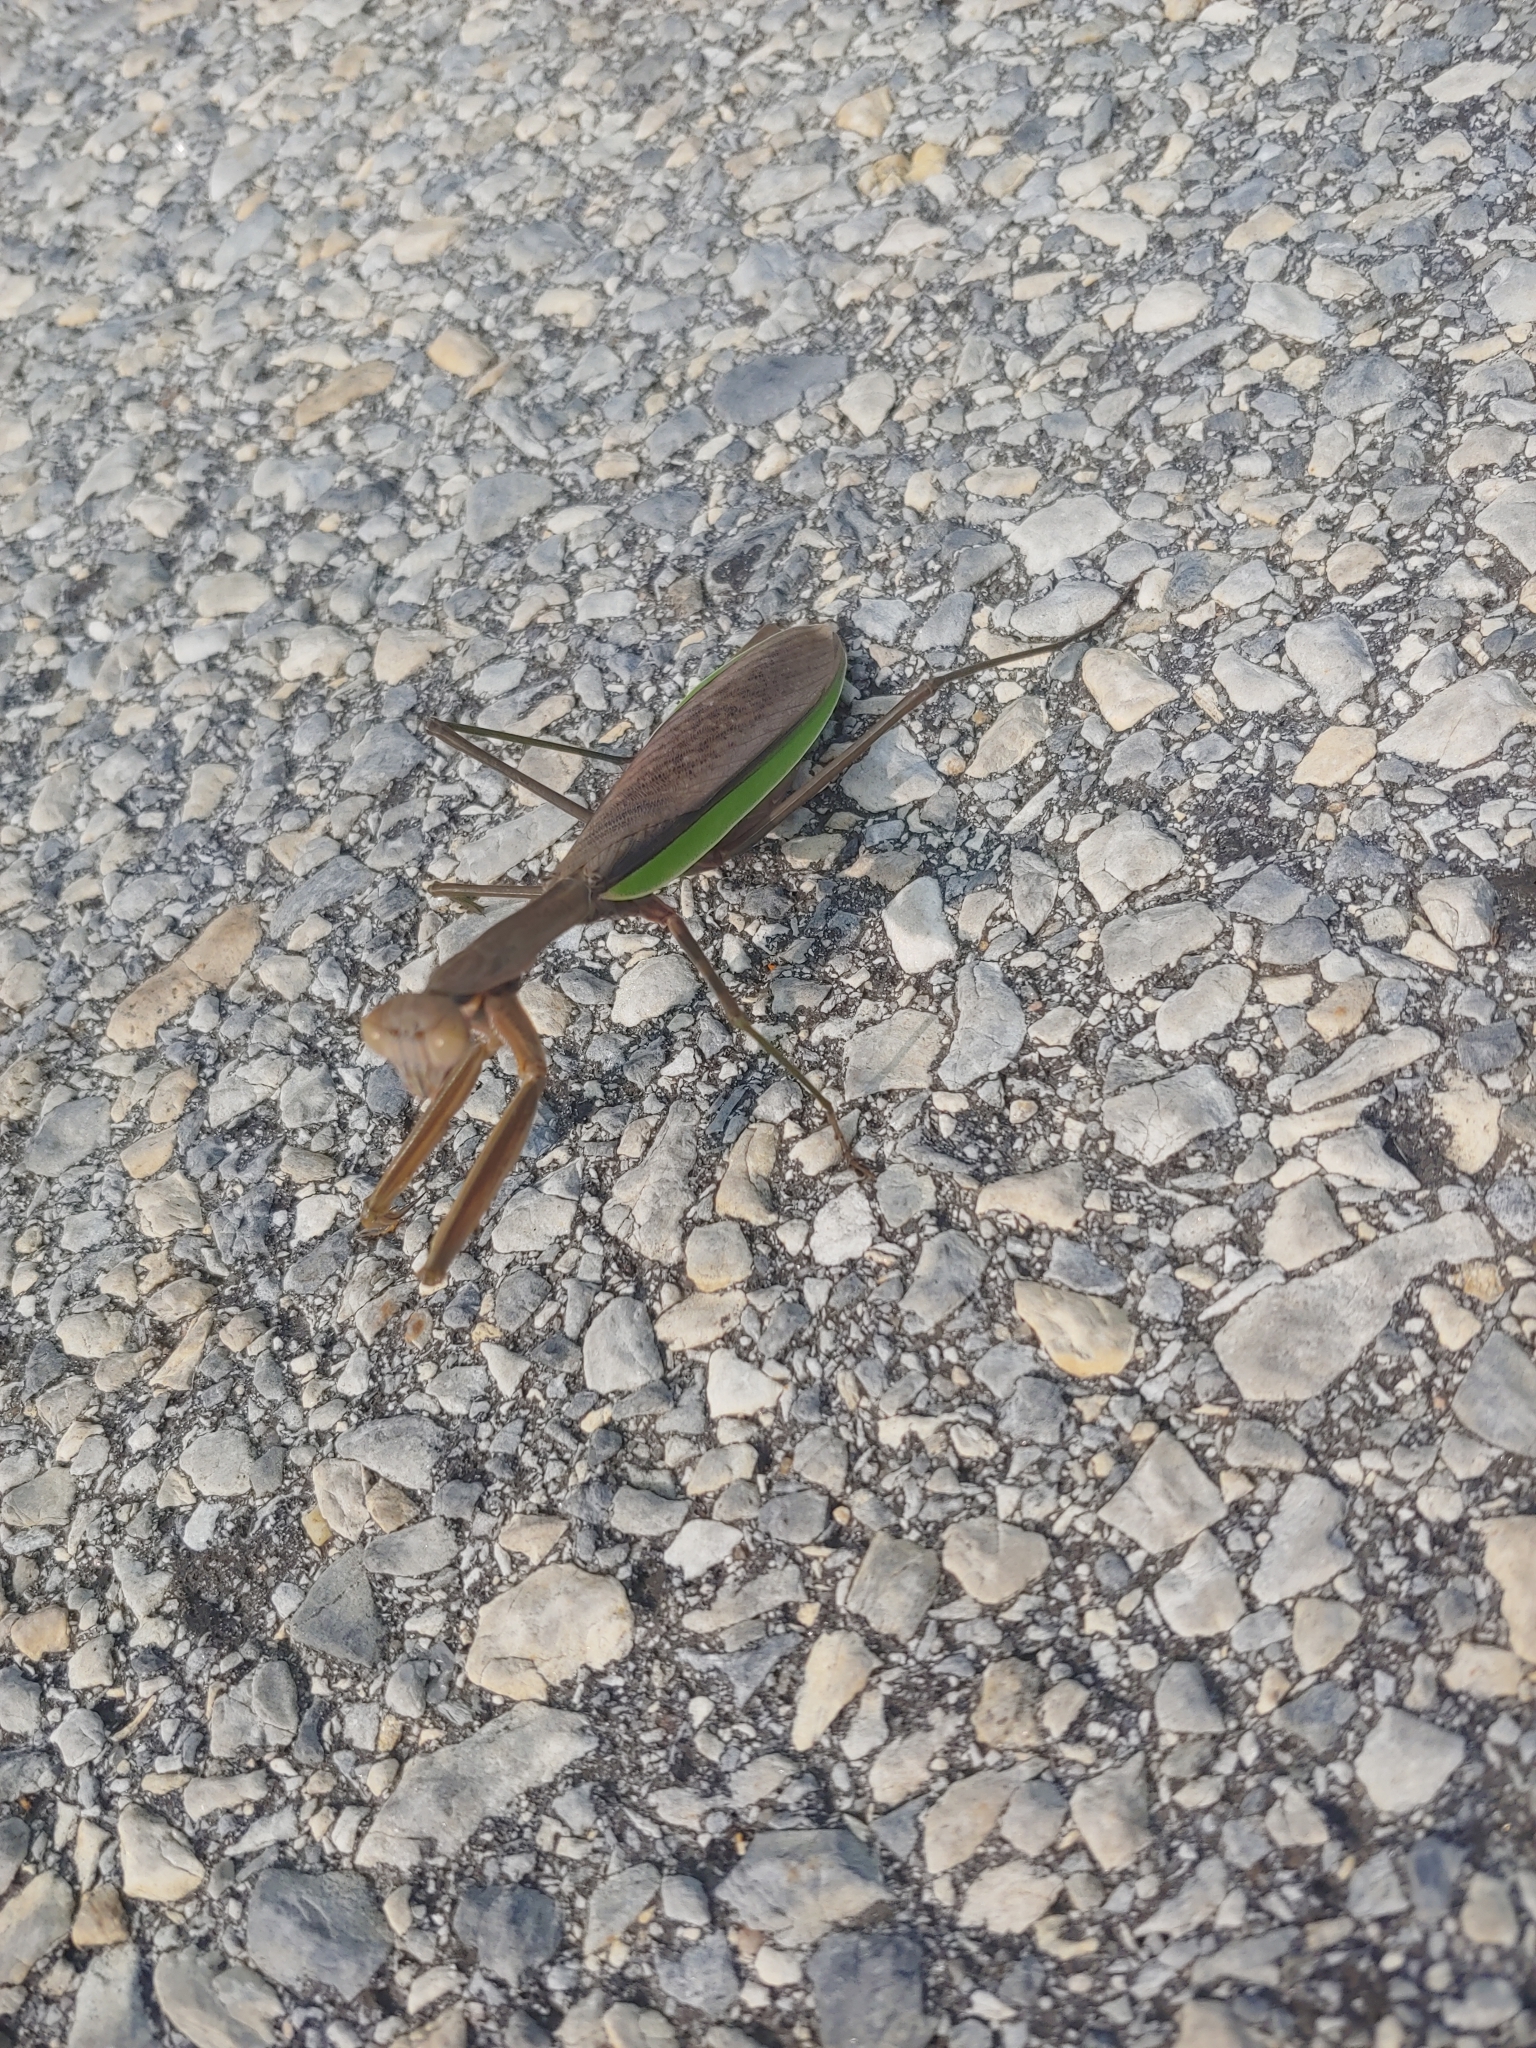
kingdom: Animalia
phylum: Arthropoda
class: Insecta
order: Mantodea
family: Mantidae
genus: Tenodera
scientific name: Tenodera sinensis
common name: Chinese mantis
